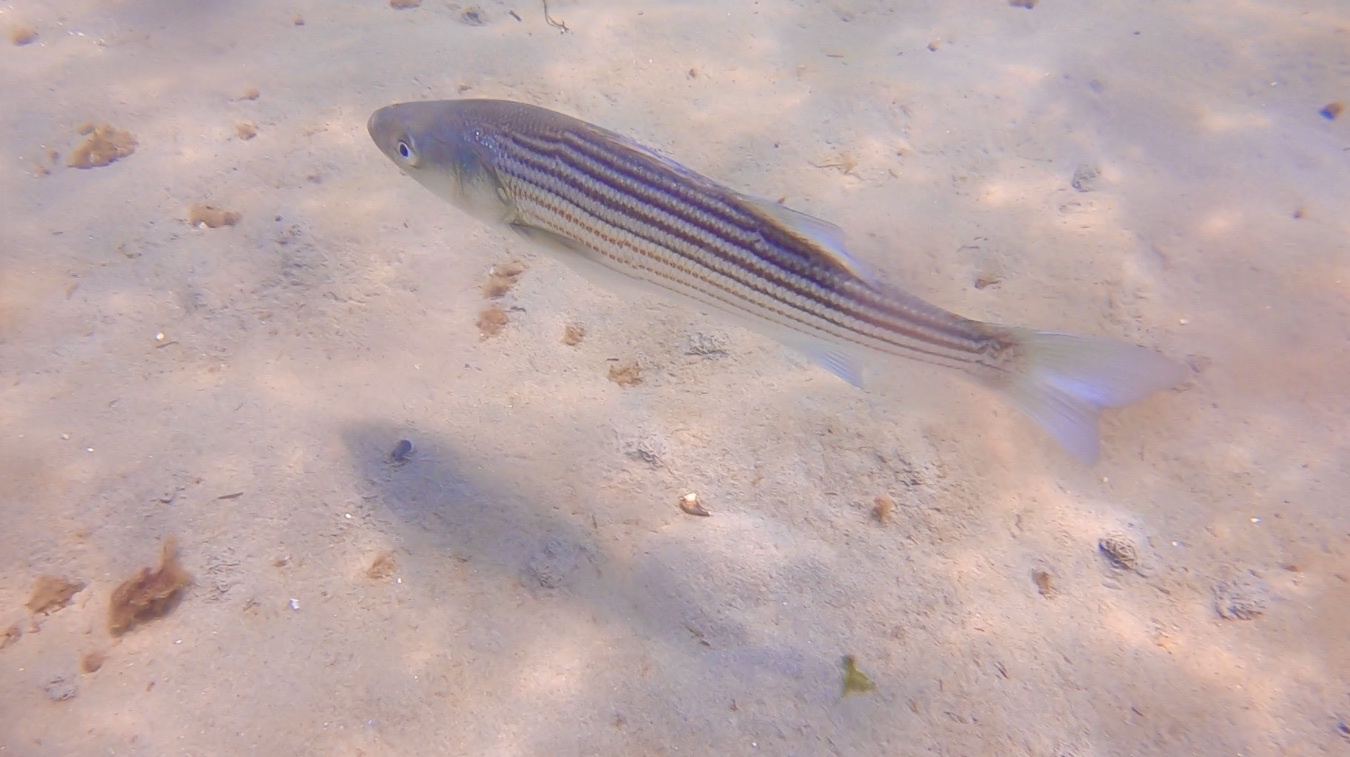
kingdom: Animalia
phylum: Chordata
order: Perciformes
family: Moronidae
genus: Morone
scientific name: Morone saxatilis
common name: Striped bass
